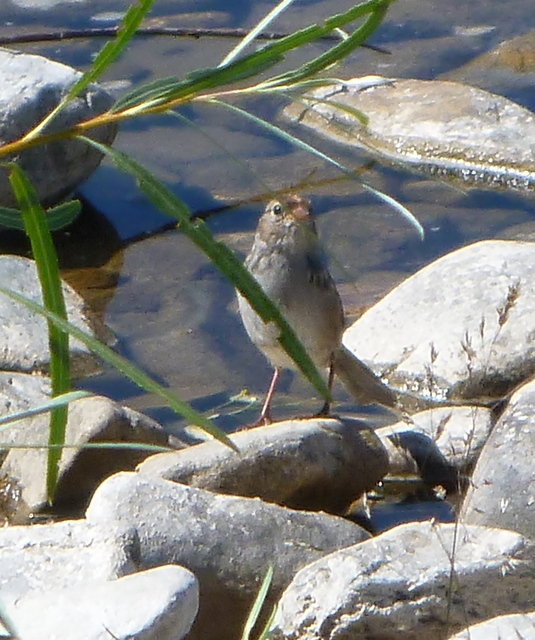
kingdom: Animalia
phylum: Chordata
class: Aves
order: Passeriformes
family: Passerellidae
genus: Zonotrichia
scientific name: Zonotrichia leucophrys
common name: White-crowned sparrow
